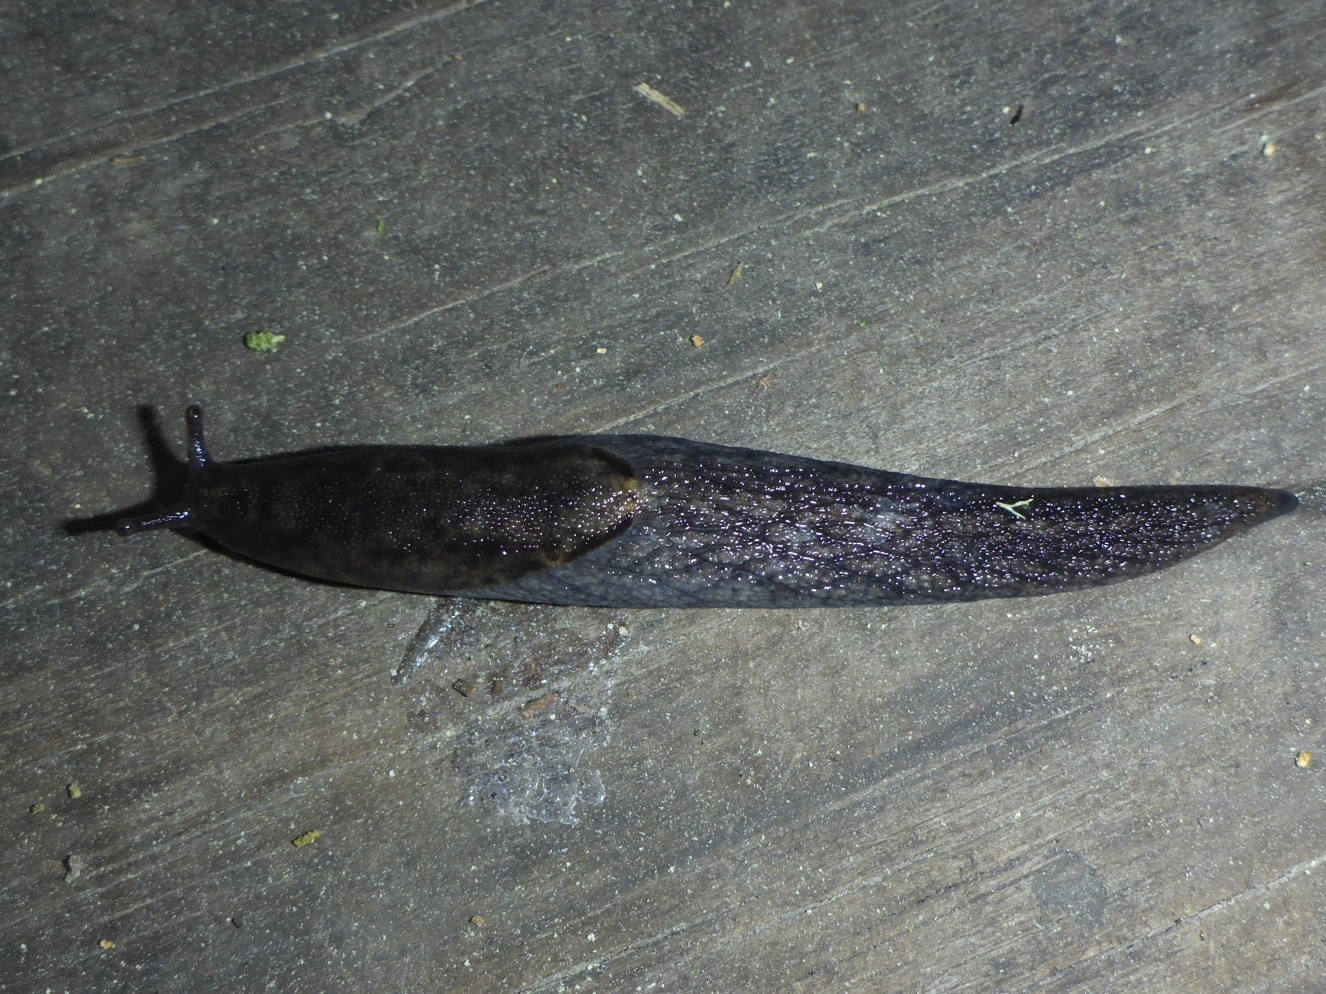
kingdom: Animalia
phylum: Mollusca
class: Gastropoda
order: Stylommatophora
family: Ariolimacidae
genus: Prophysaon
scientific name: Prophysaon andersonii
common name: Reticulate taildropper
